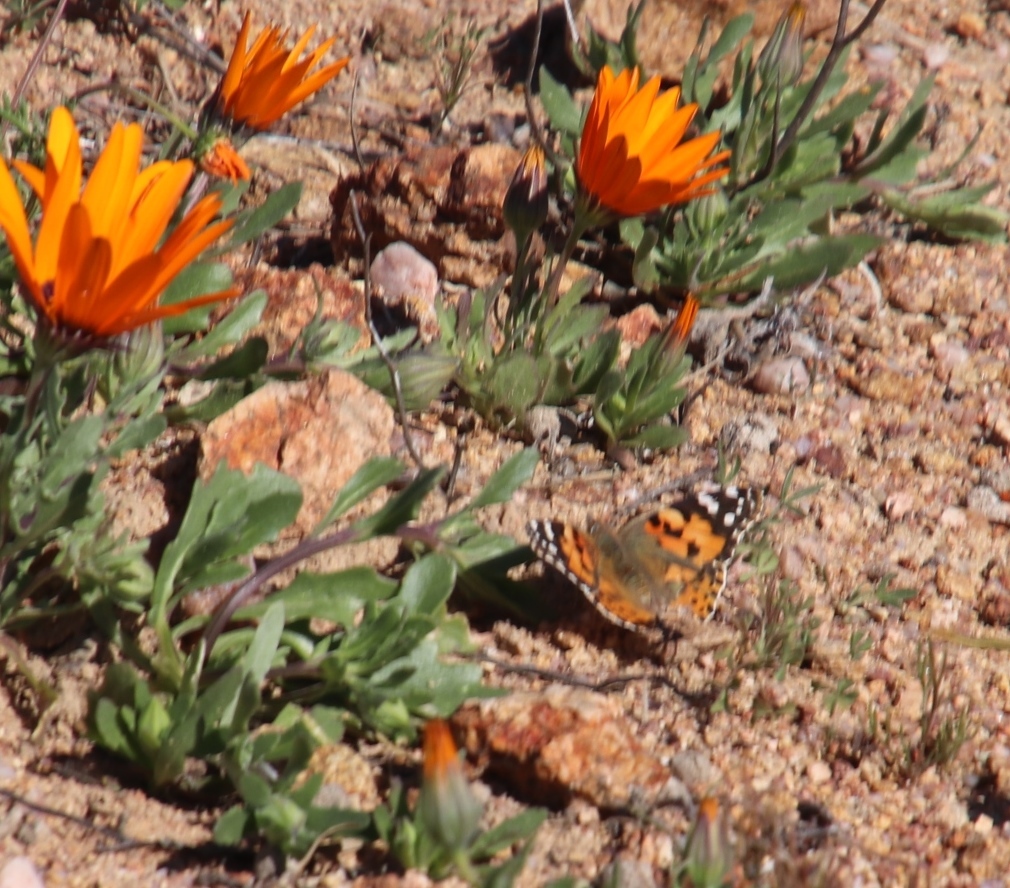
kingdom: Animalia
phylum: Arthropoda
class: Insecta
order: Lepidoptera
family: Nymphalidae
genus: Vanessa
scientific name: Vanessa cardui
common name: Painted lady
